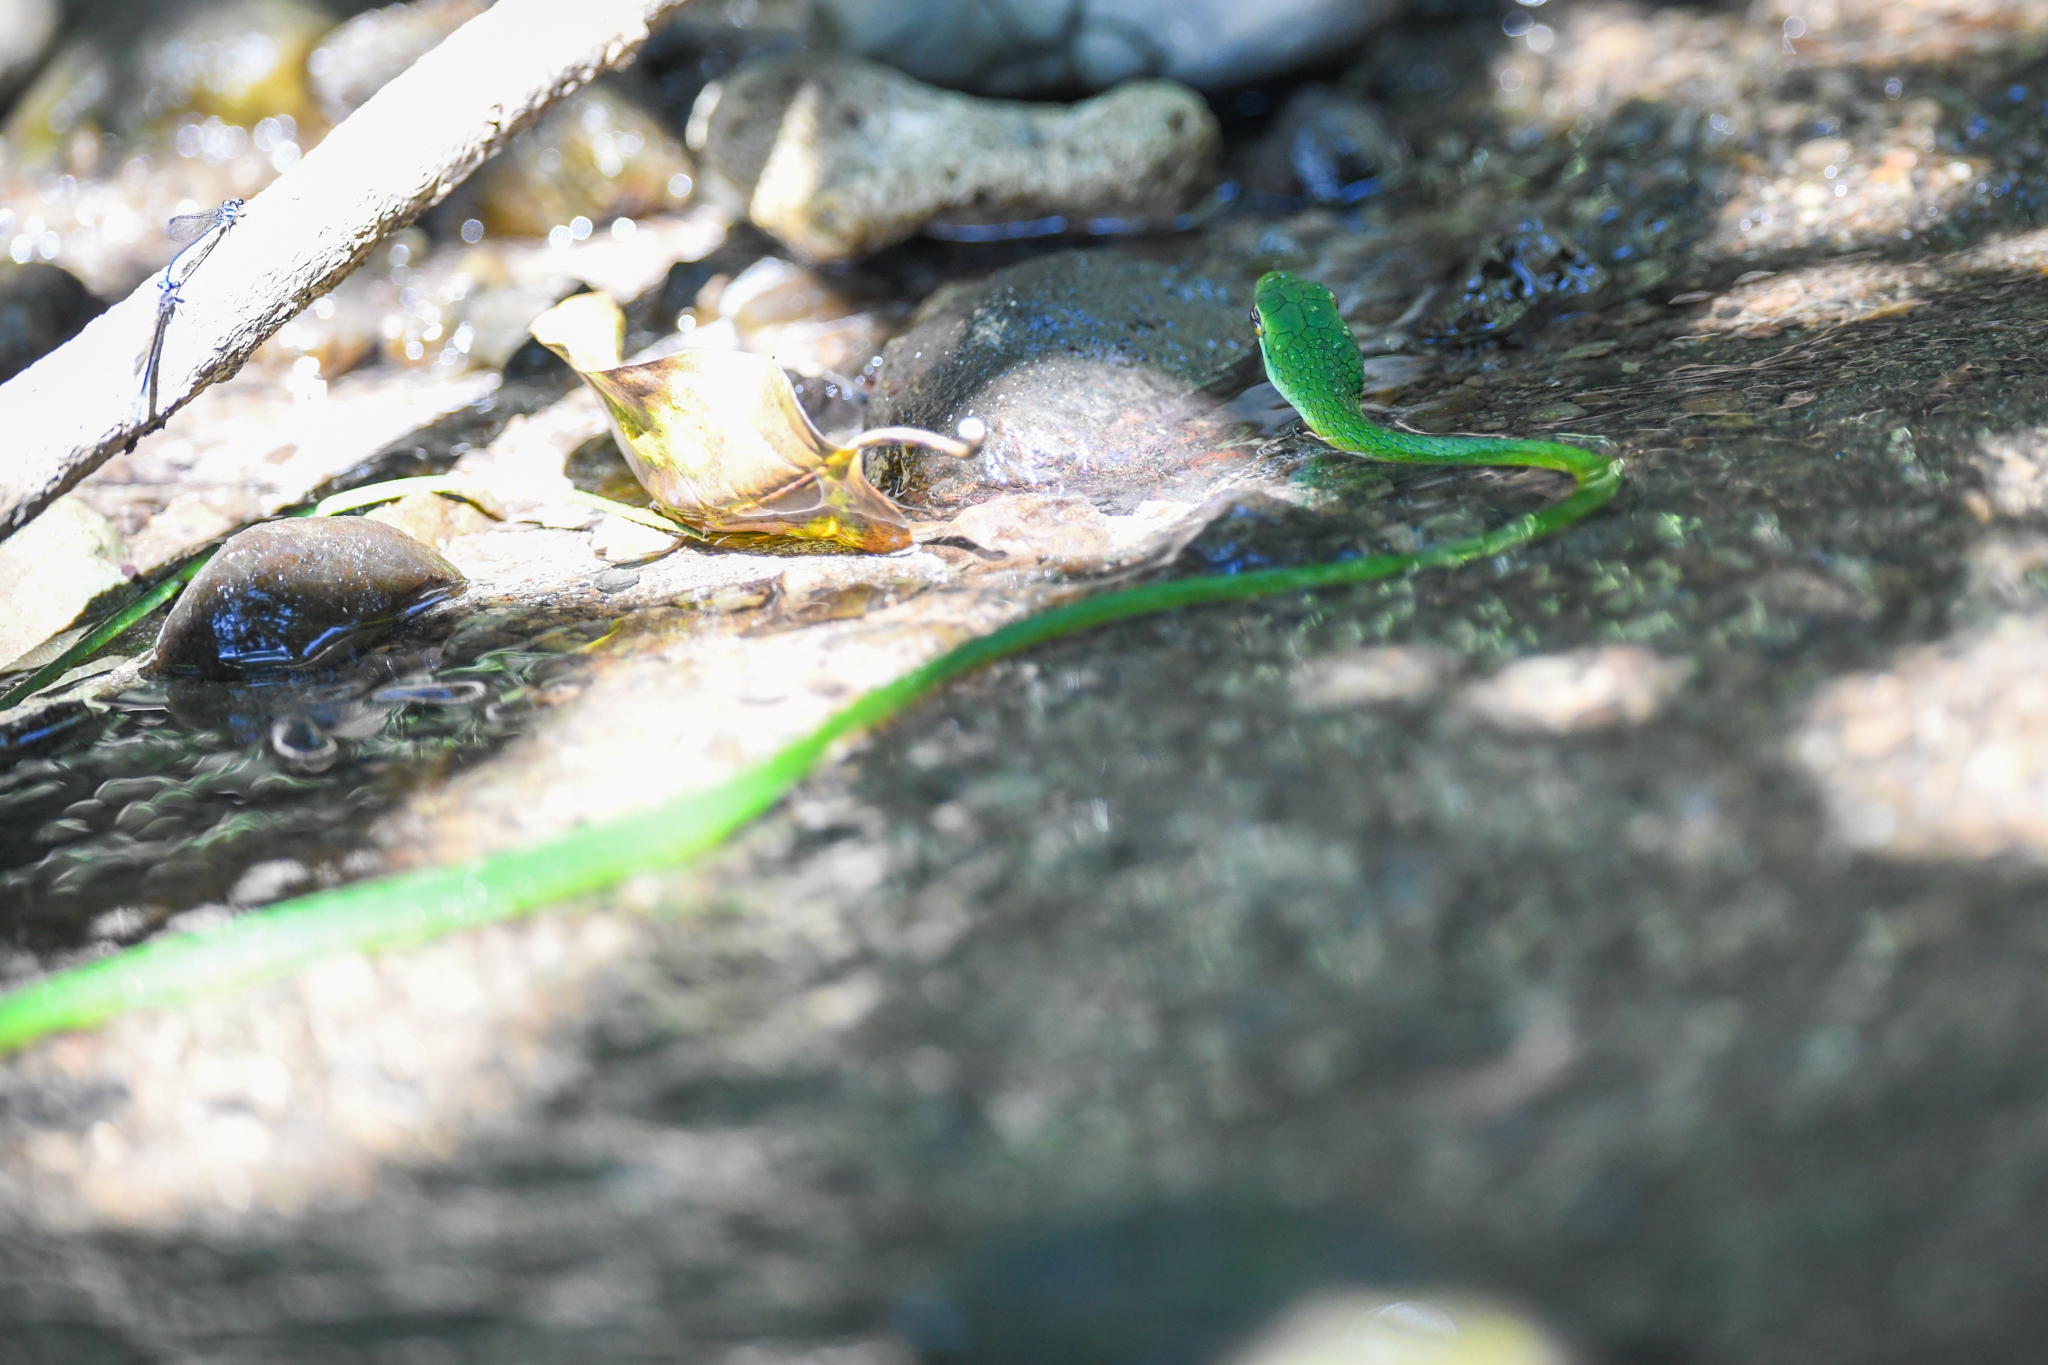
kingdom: Animalia
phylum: Chordata
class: Squamata
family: Colubridae
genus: Leptophis
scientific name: Leptophis ahaetulla
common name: Parrot snake
